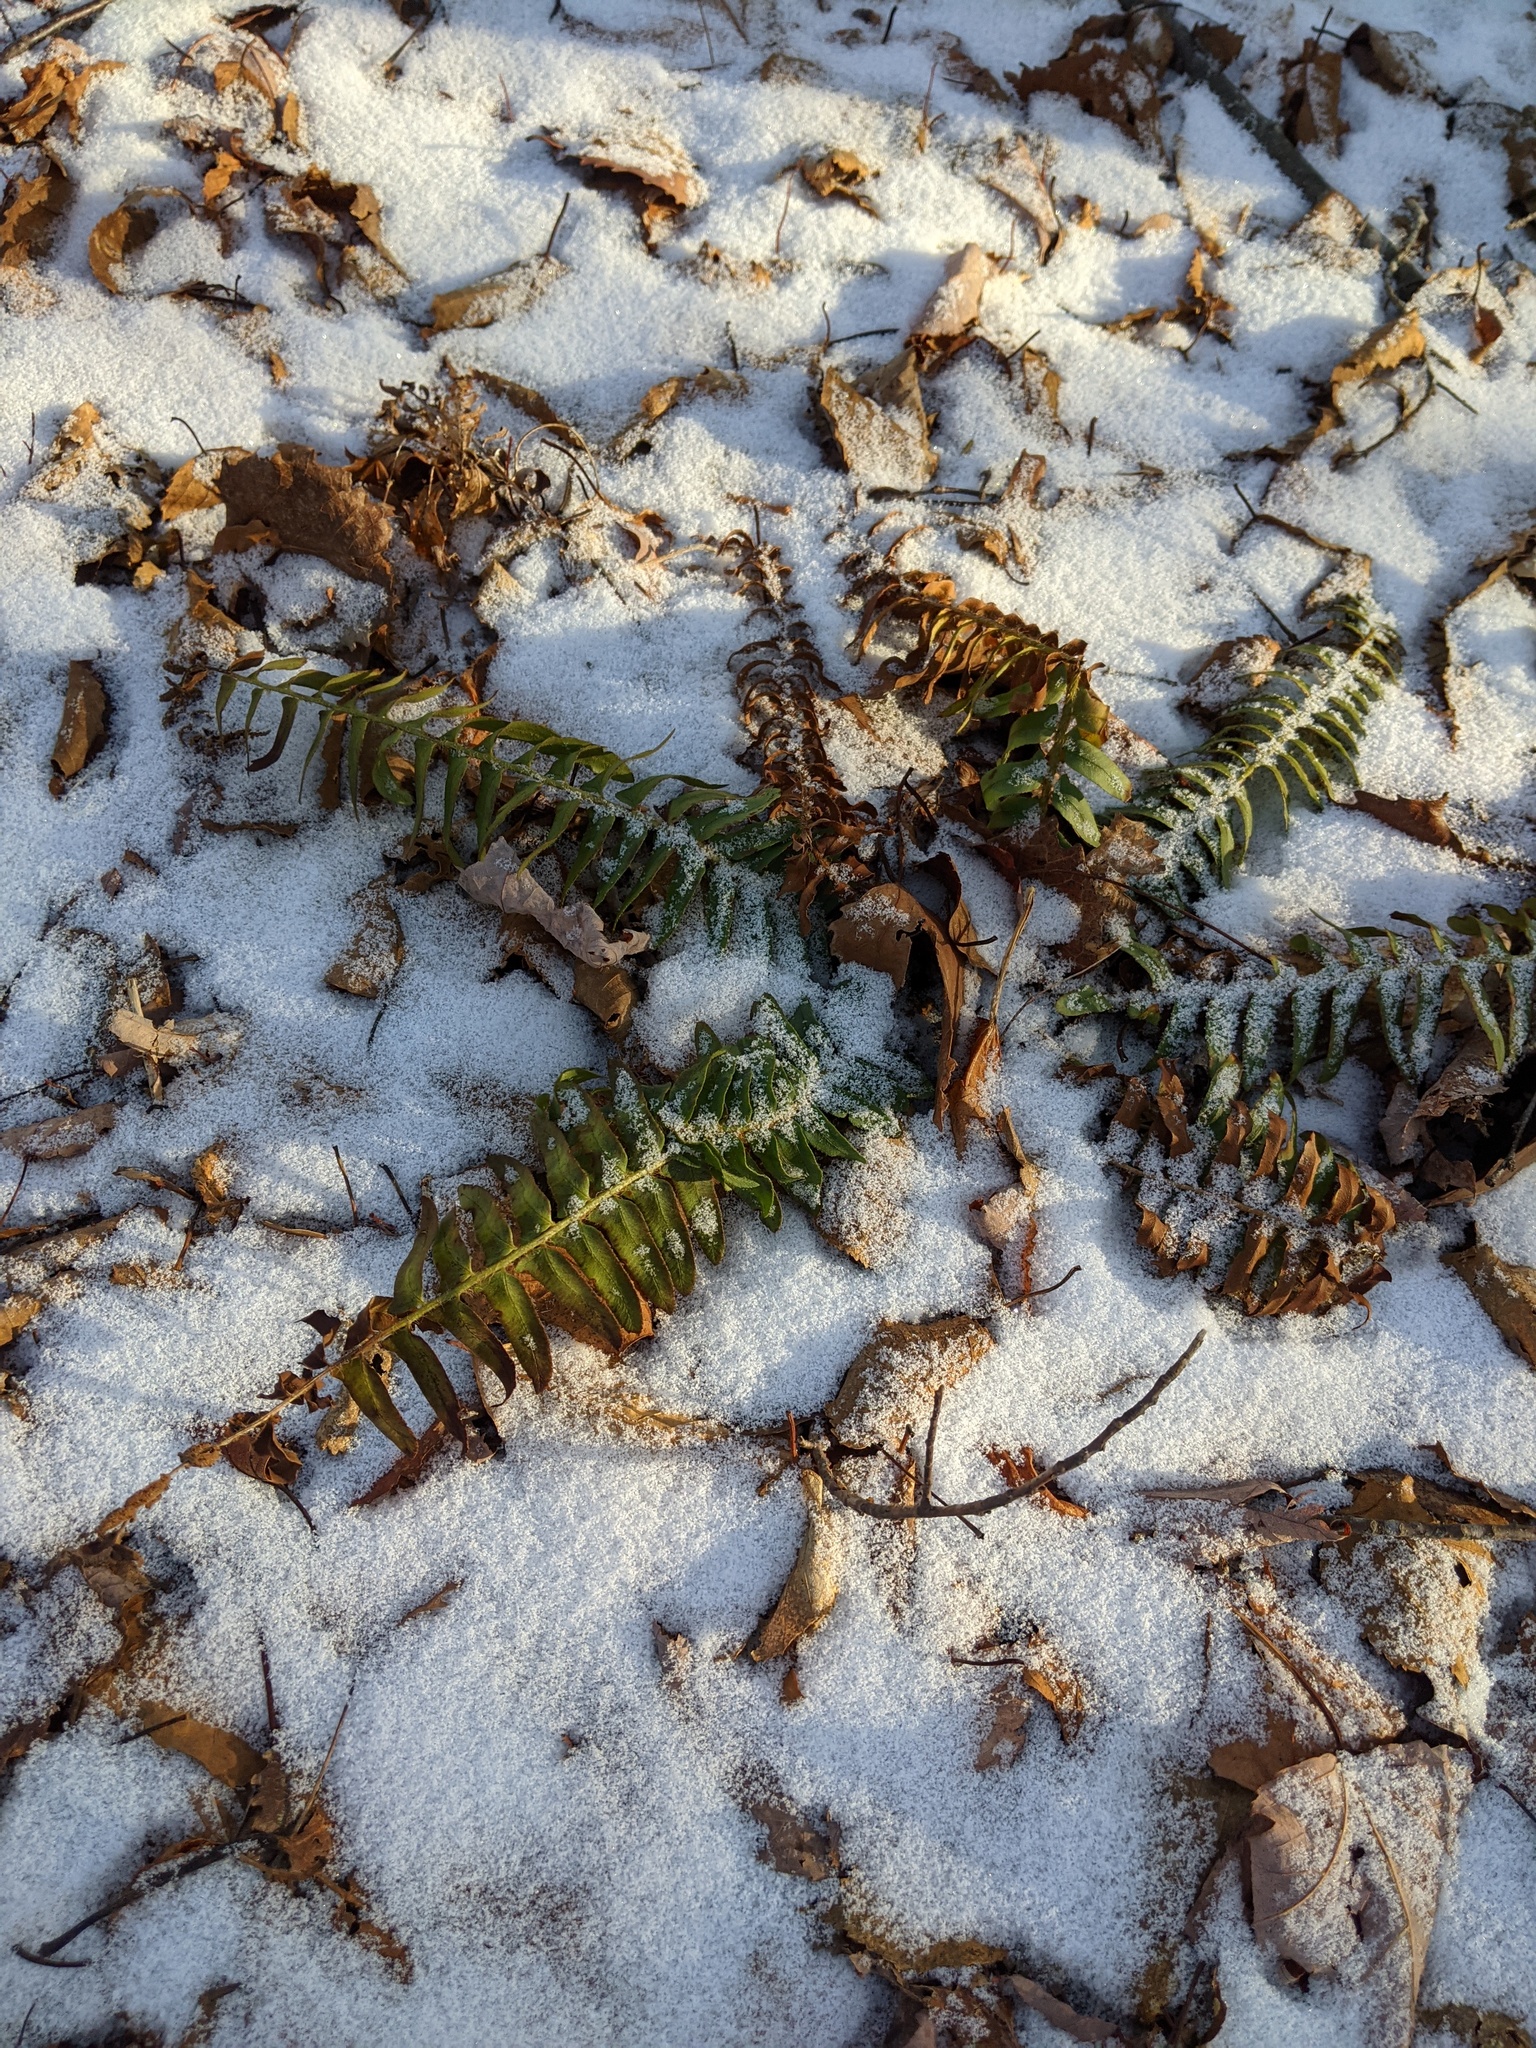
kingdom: Plantae
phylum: Tracheophyta
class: Polypodiopsida
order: Polypodiales
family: Dryopteridaceae
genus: Polystichum
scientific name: Polystichum acrostichoides
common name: Christmas fern
